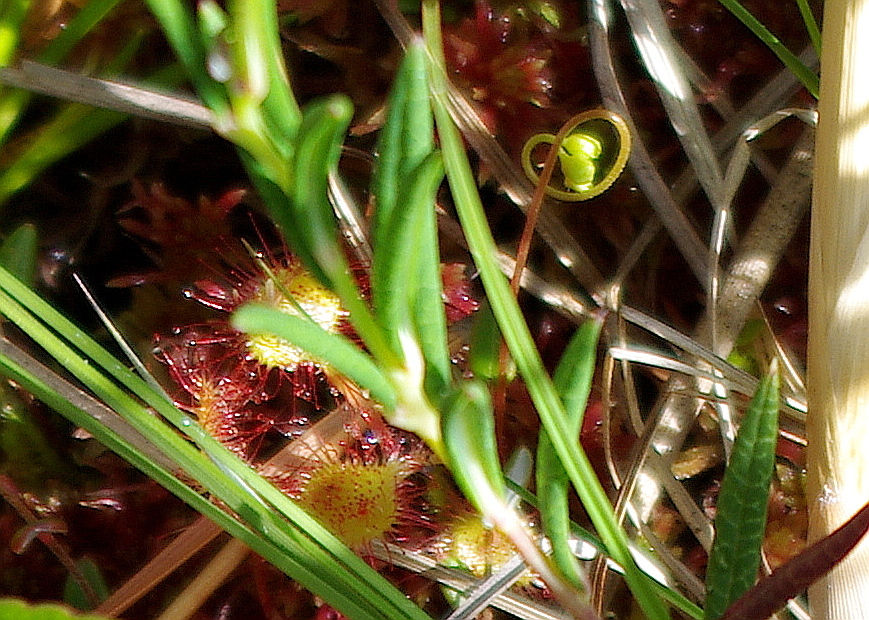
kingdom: Plantae
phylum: Tracheophyta
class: Magnoliopsida
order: Caryophyllales
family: Droseraceae
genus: Drosera
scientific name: Drosera rotundifolia
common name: Round-leaved sundew
